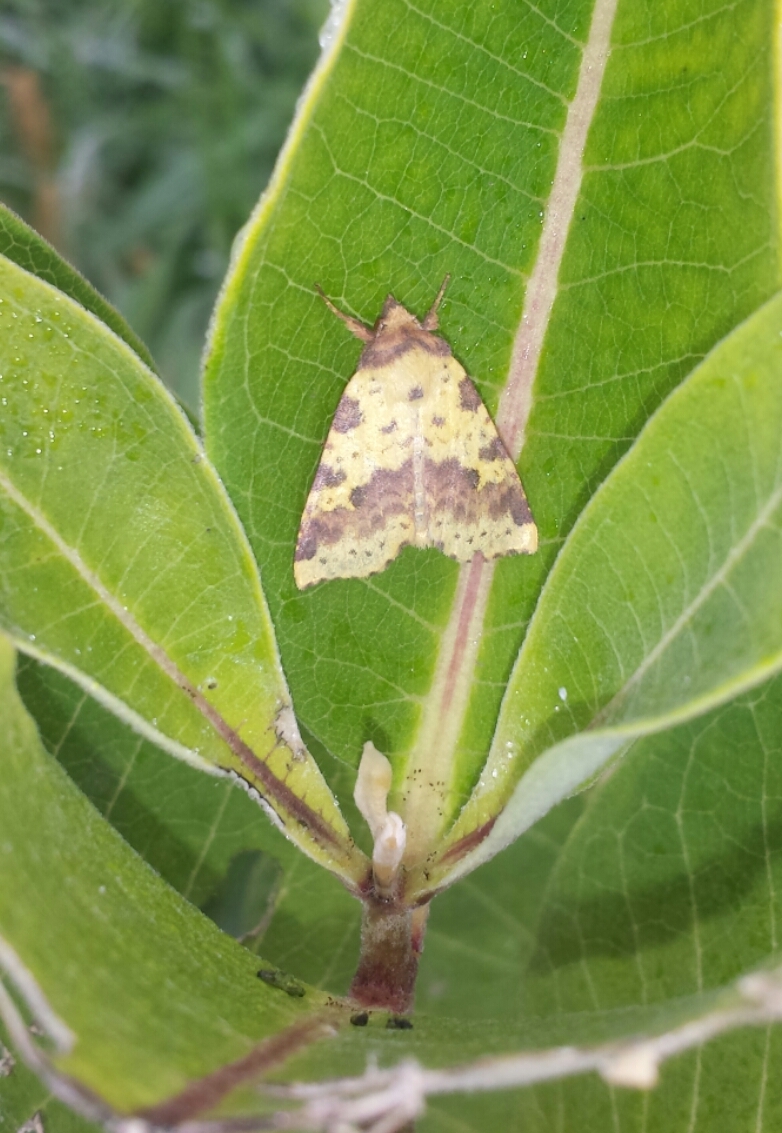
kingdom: Animalia
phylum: Arthropoda
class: Insecta
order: Lepidoptera
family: Noctuidae
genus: Xanthia
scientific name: Xanthia tatago
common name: Pink-banded sallow
